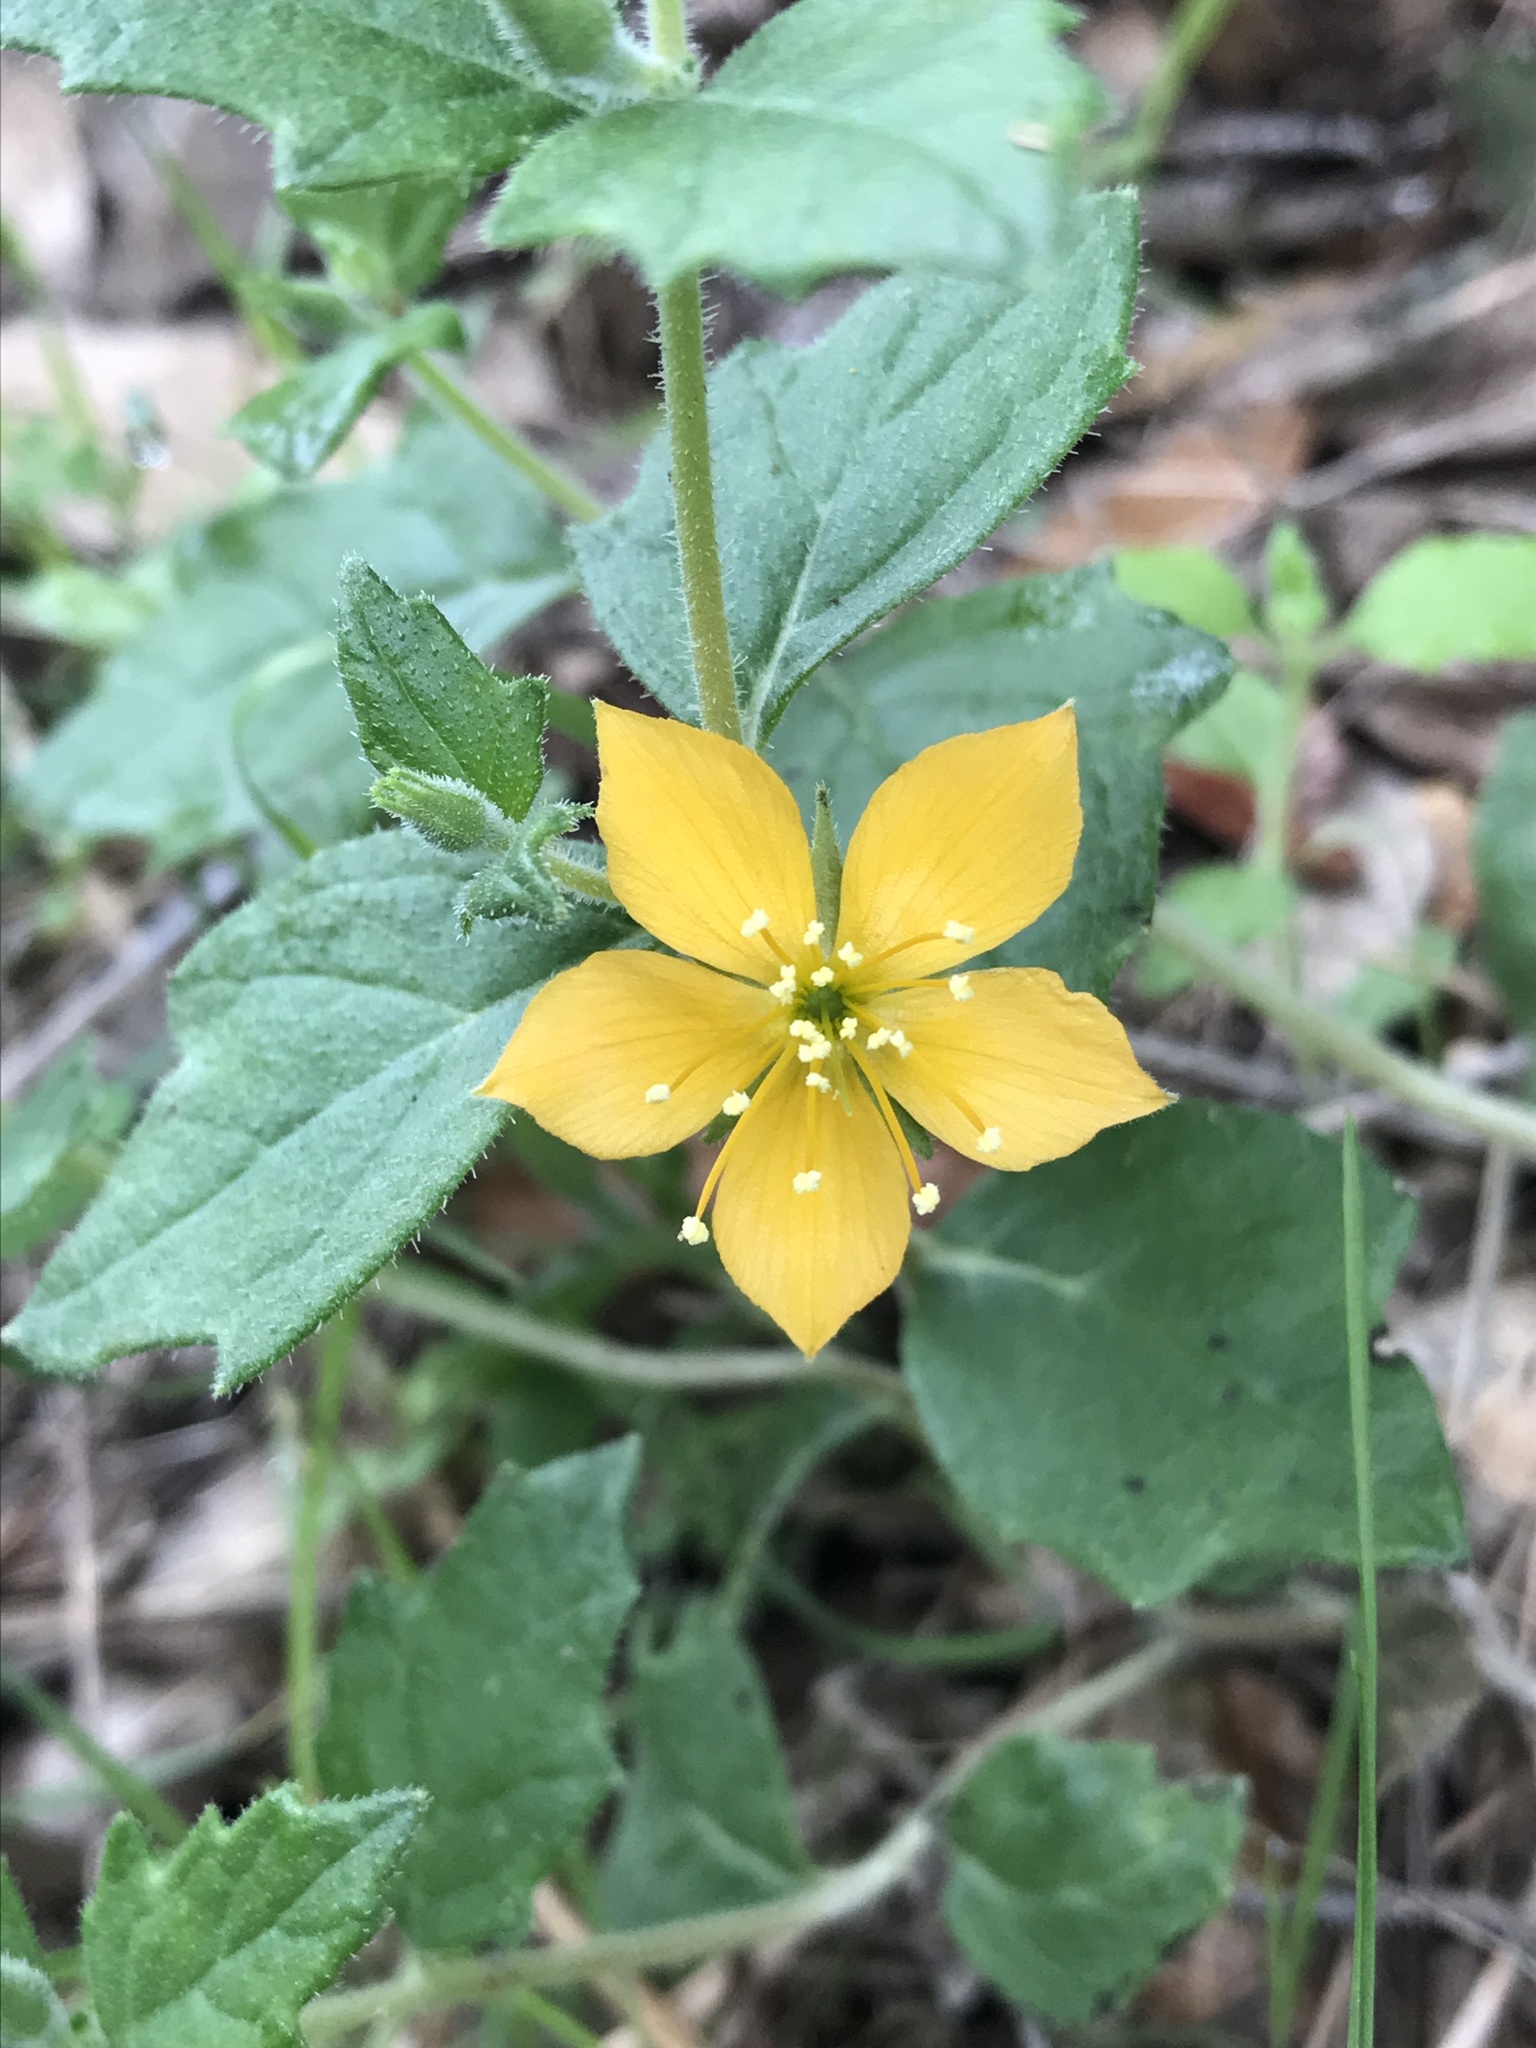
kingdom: Plantae
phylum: Tracheophyta
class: Magnoliopsida
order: Cornales
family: Loasaceae
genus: Mentzelia
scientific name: Mentzelia oligosperma
